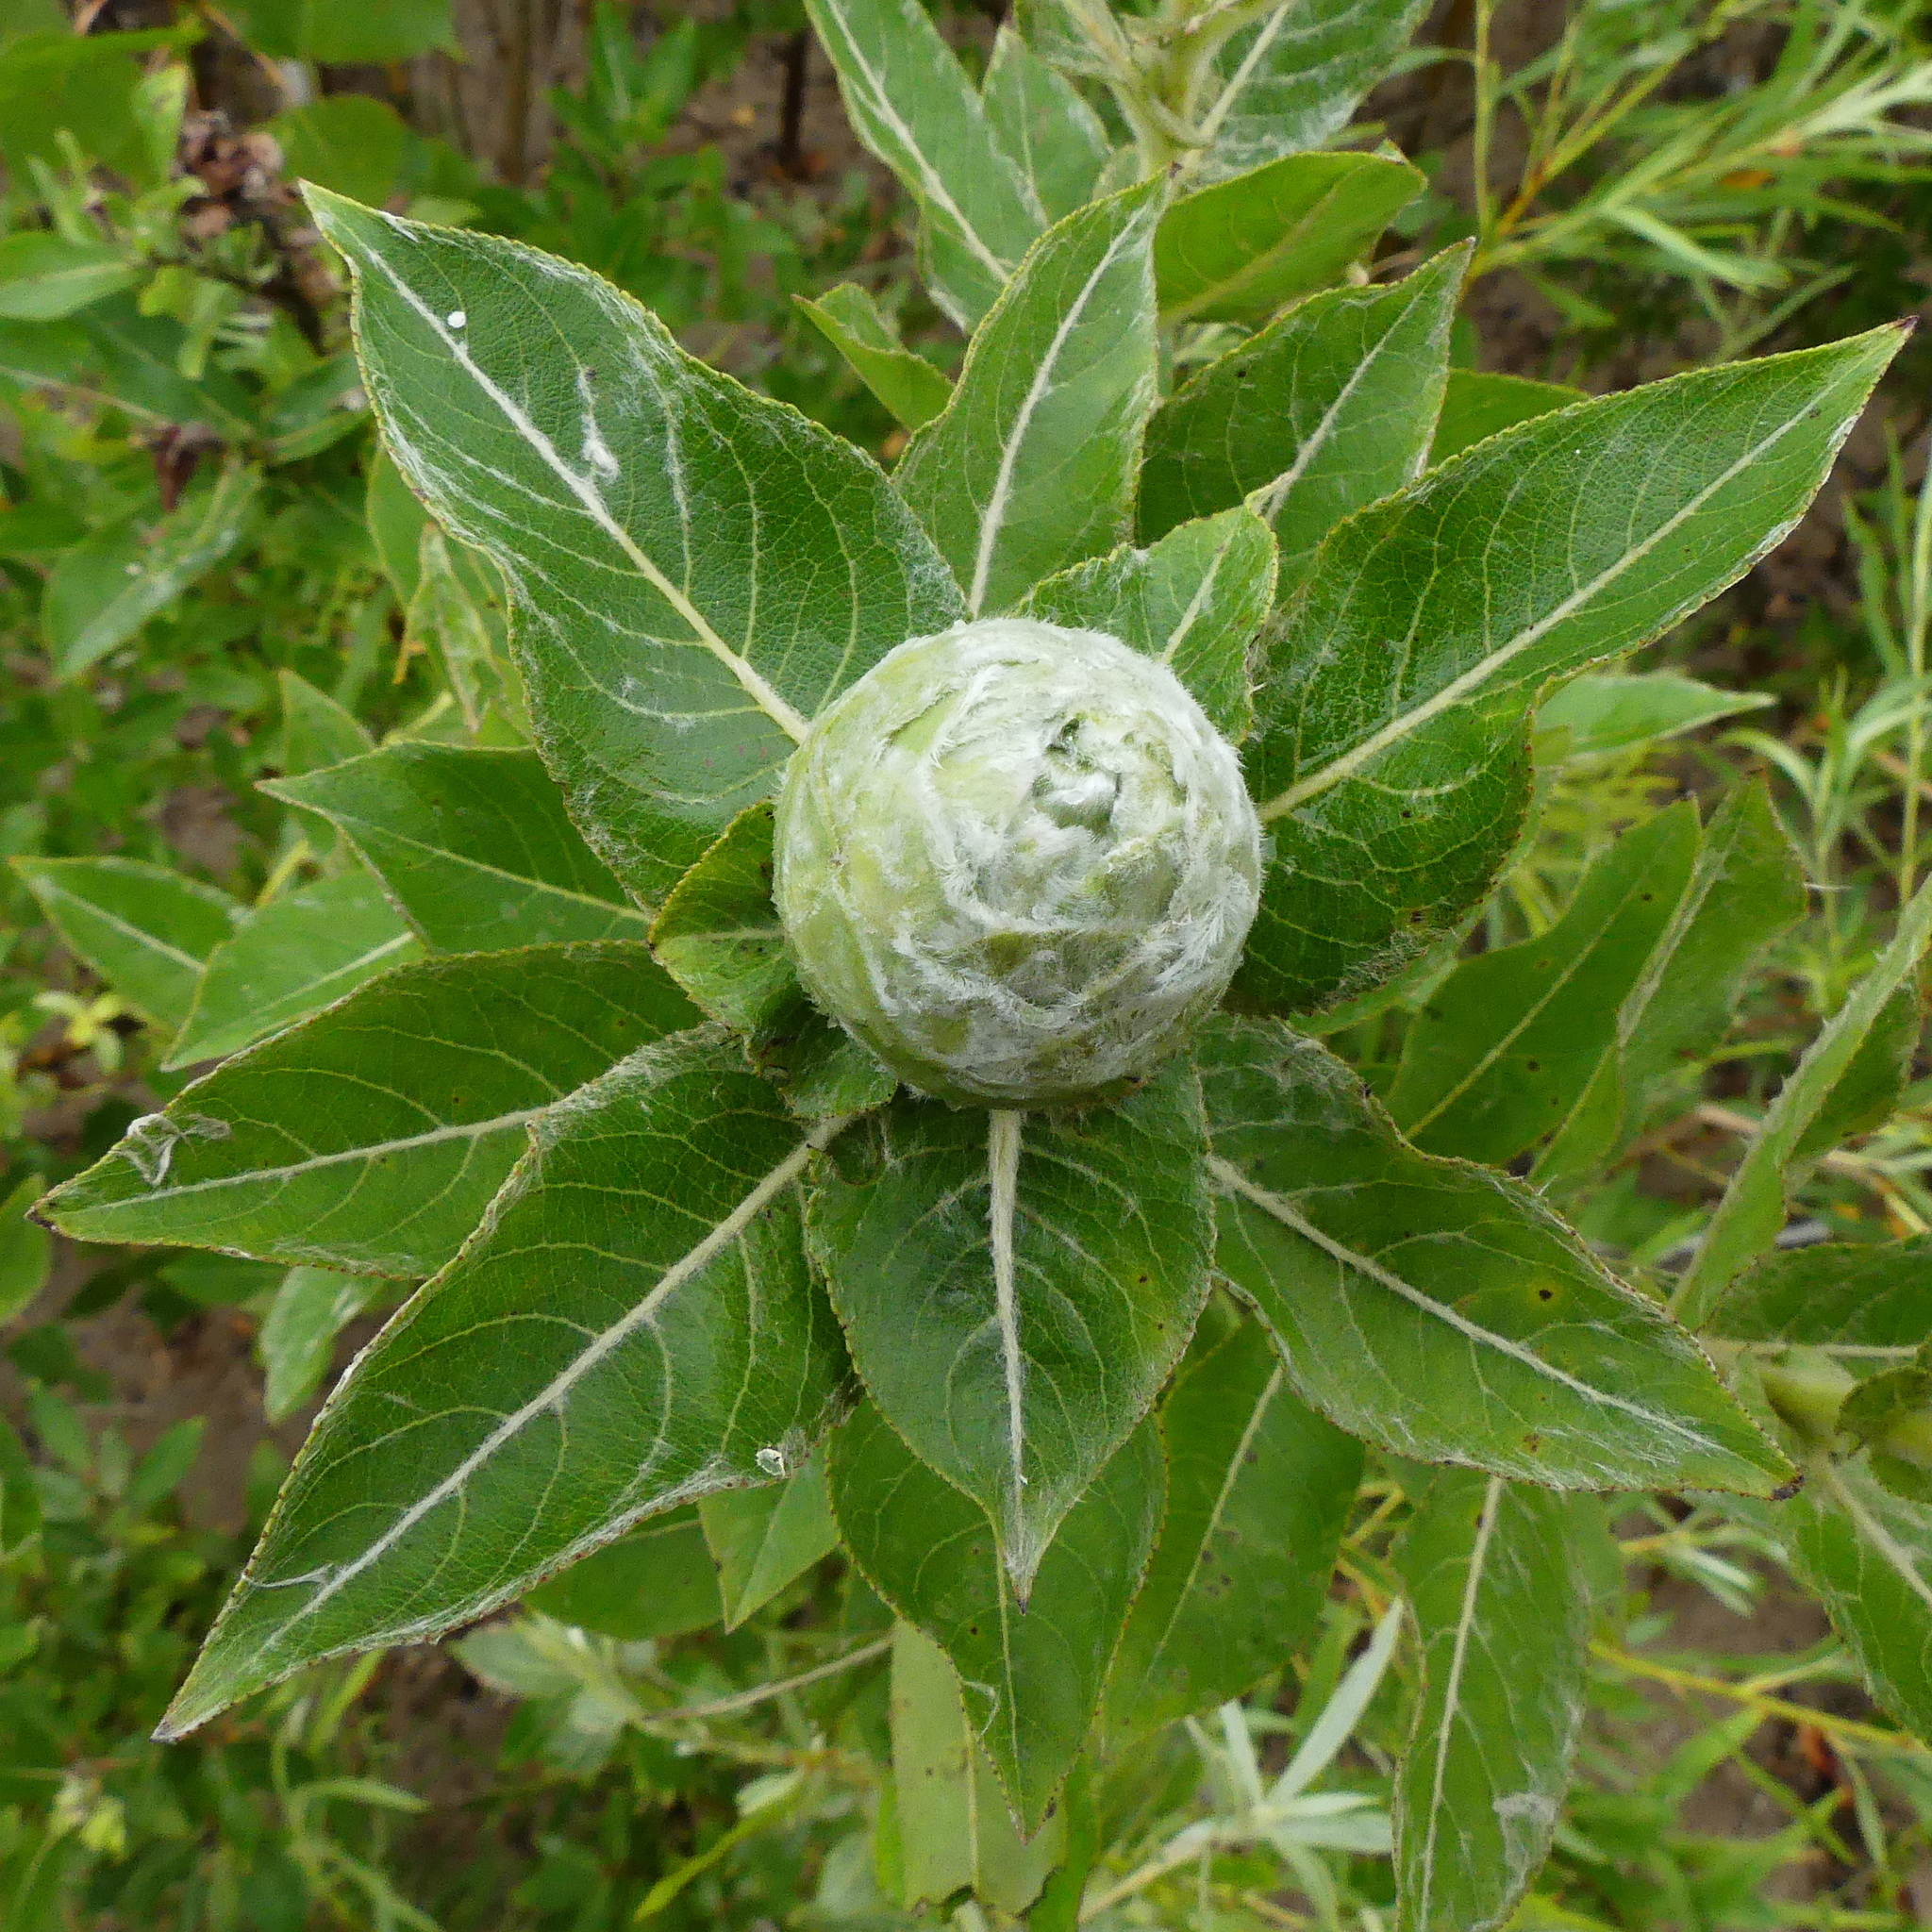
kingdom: Animalia
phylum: Arthropoda
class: Insecta
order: Diptera
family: Cecidomyiidae
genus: Rabdophaga
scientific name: Rabdophaga strobiloides
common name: Willow pinecone gall midge
